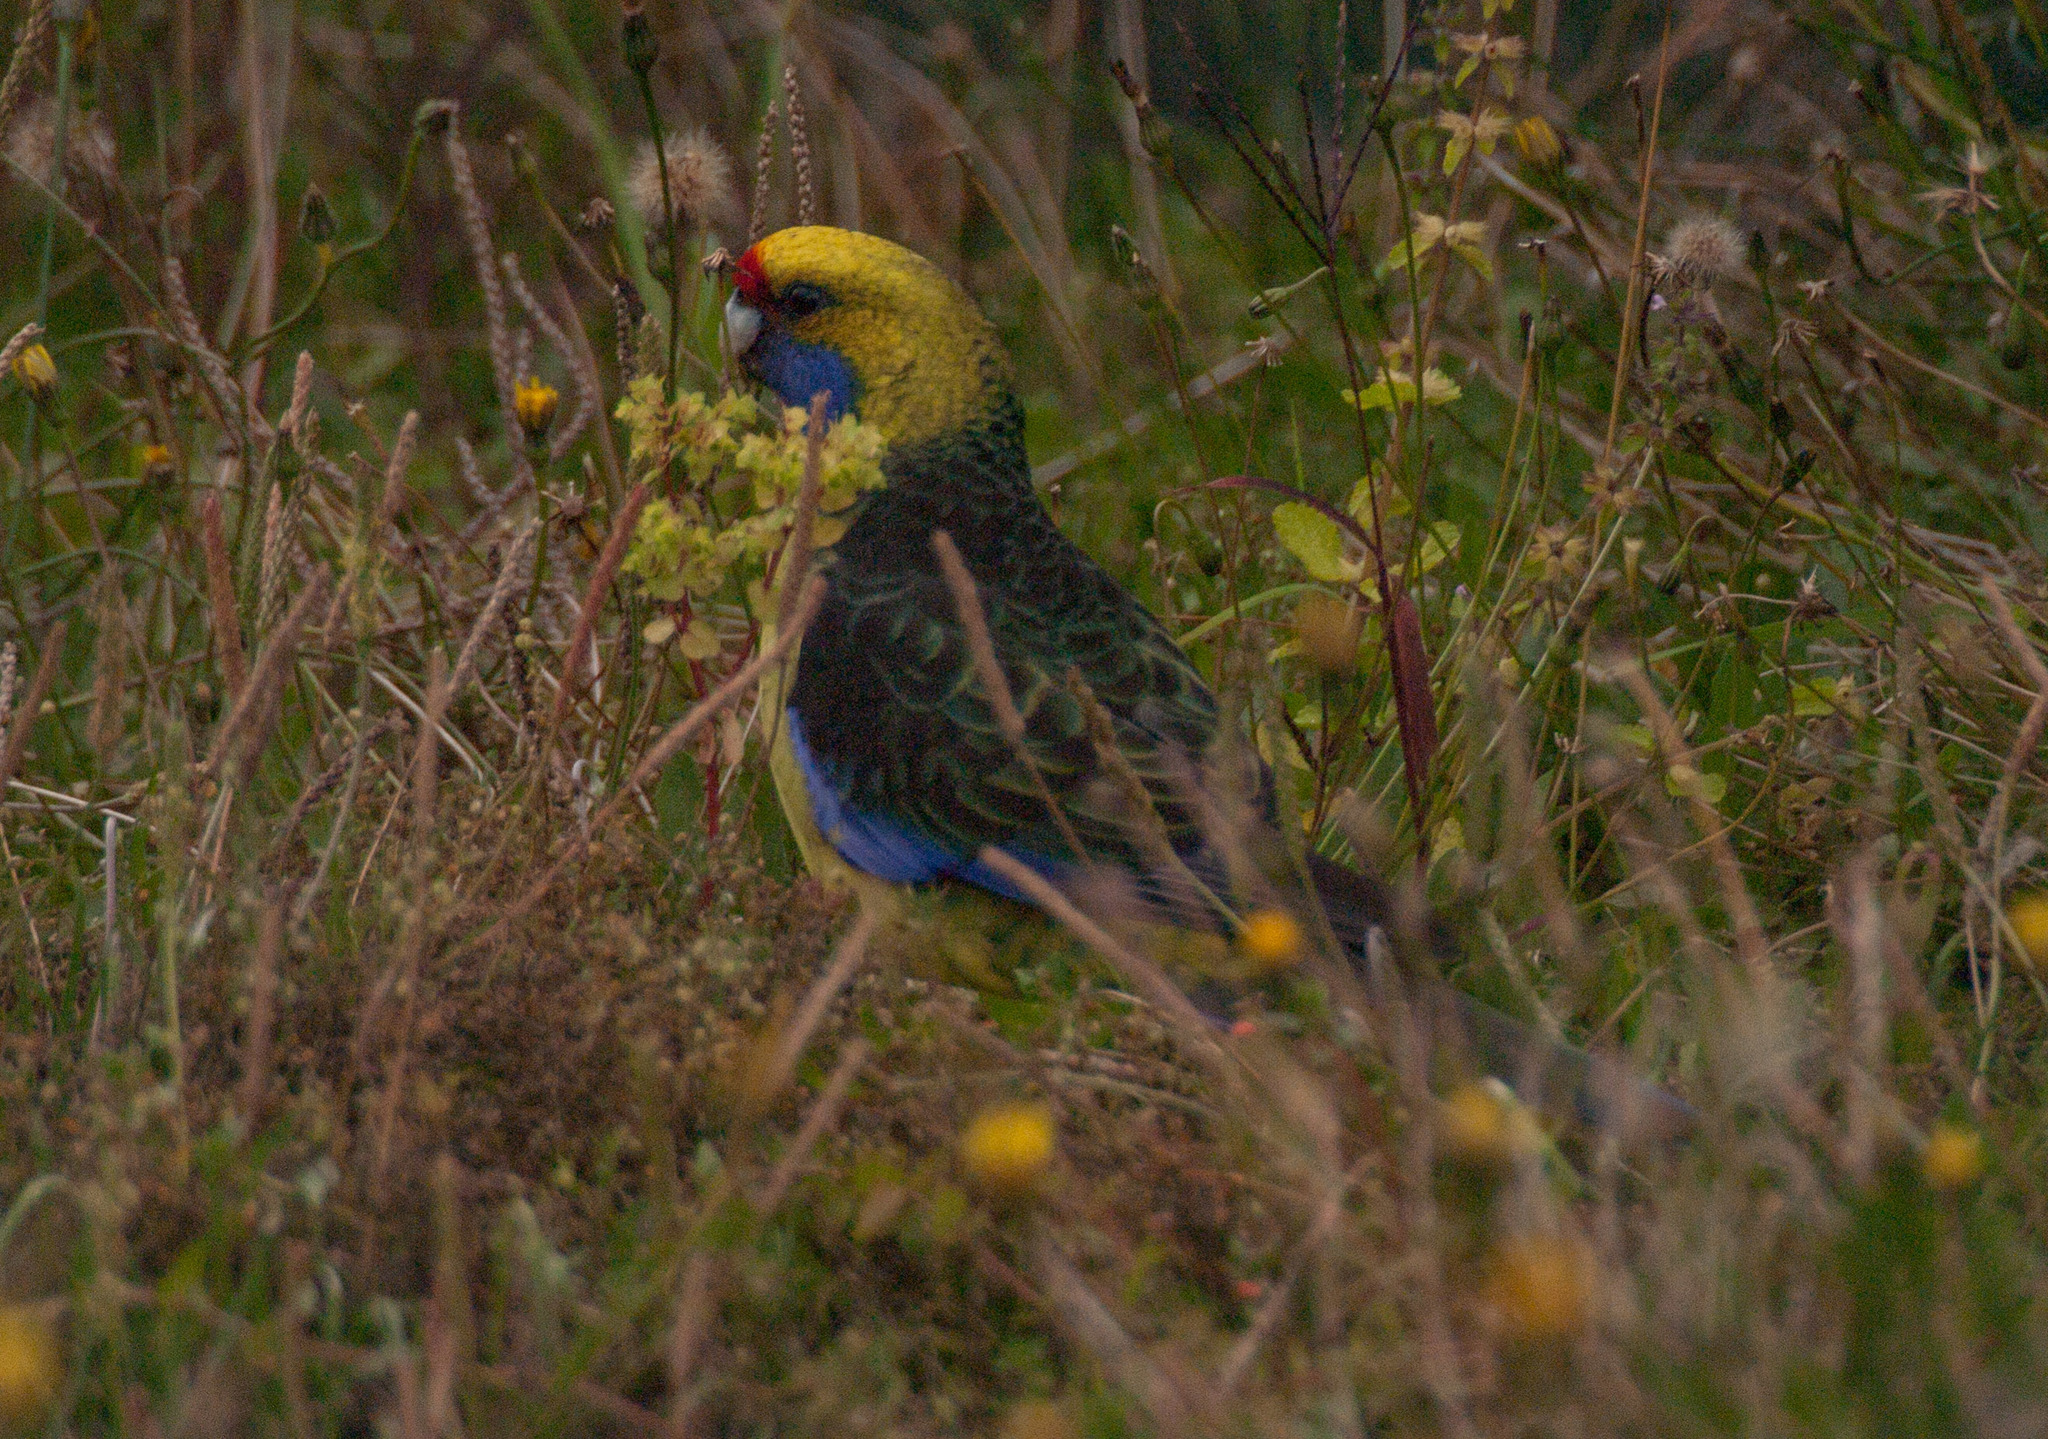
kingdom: Animalia
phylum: Chordata
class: Aves
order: Psittaciformes
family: Psittacidae
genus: Platycercus
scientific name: Platycercus caledonicus
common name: Green rosella
